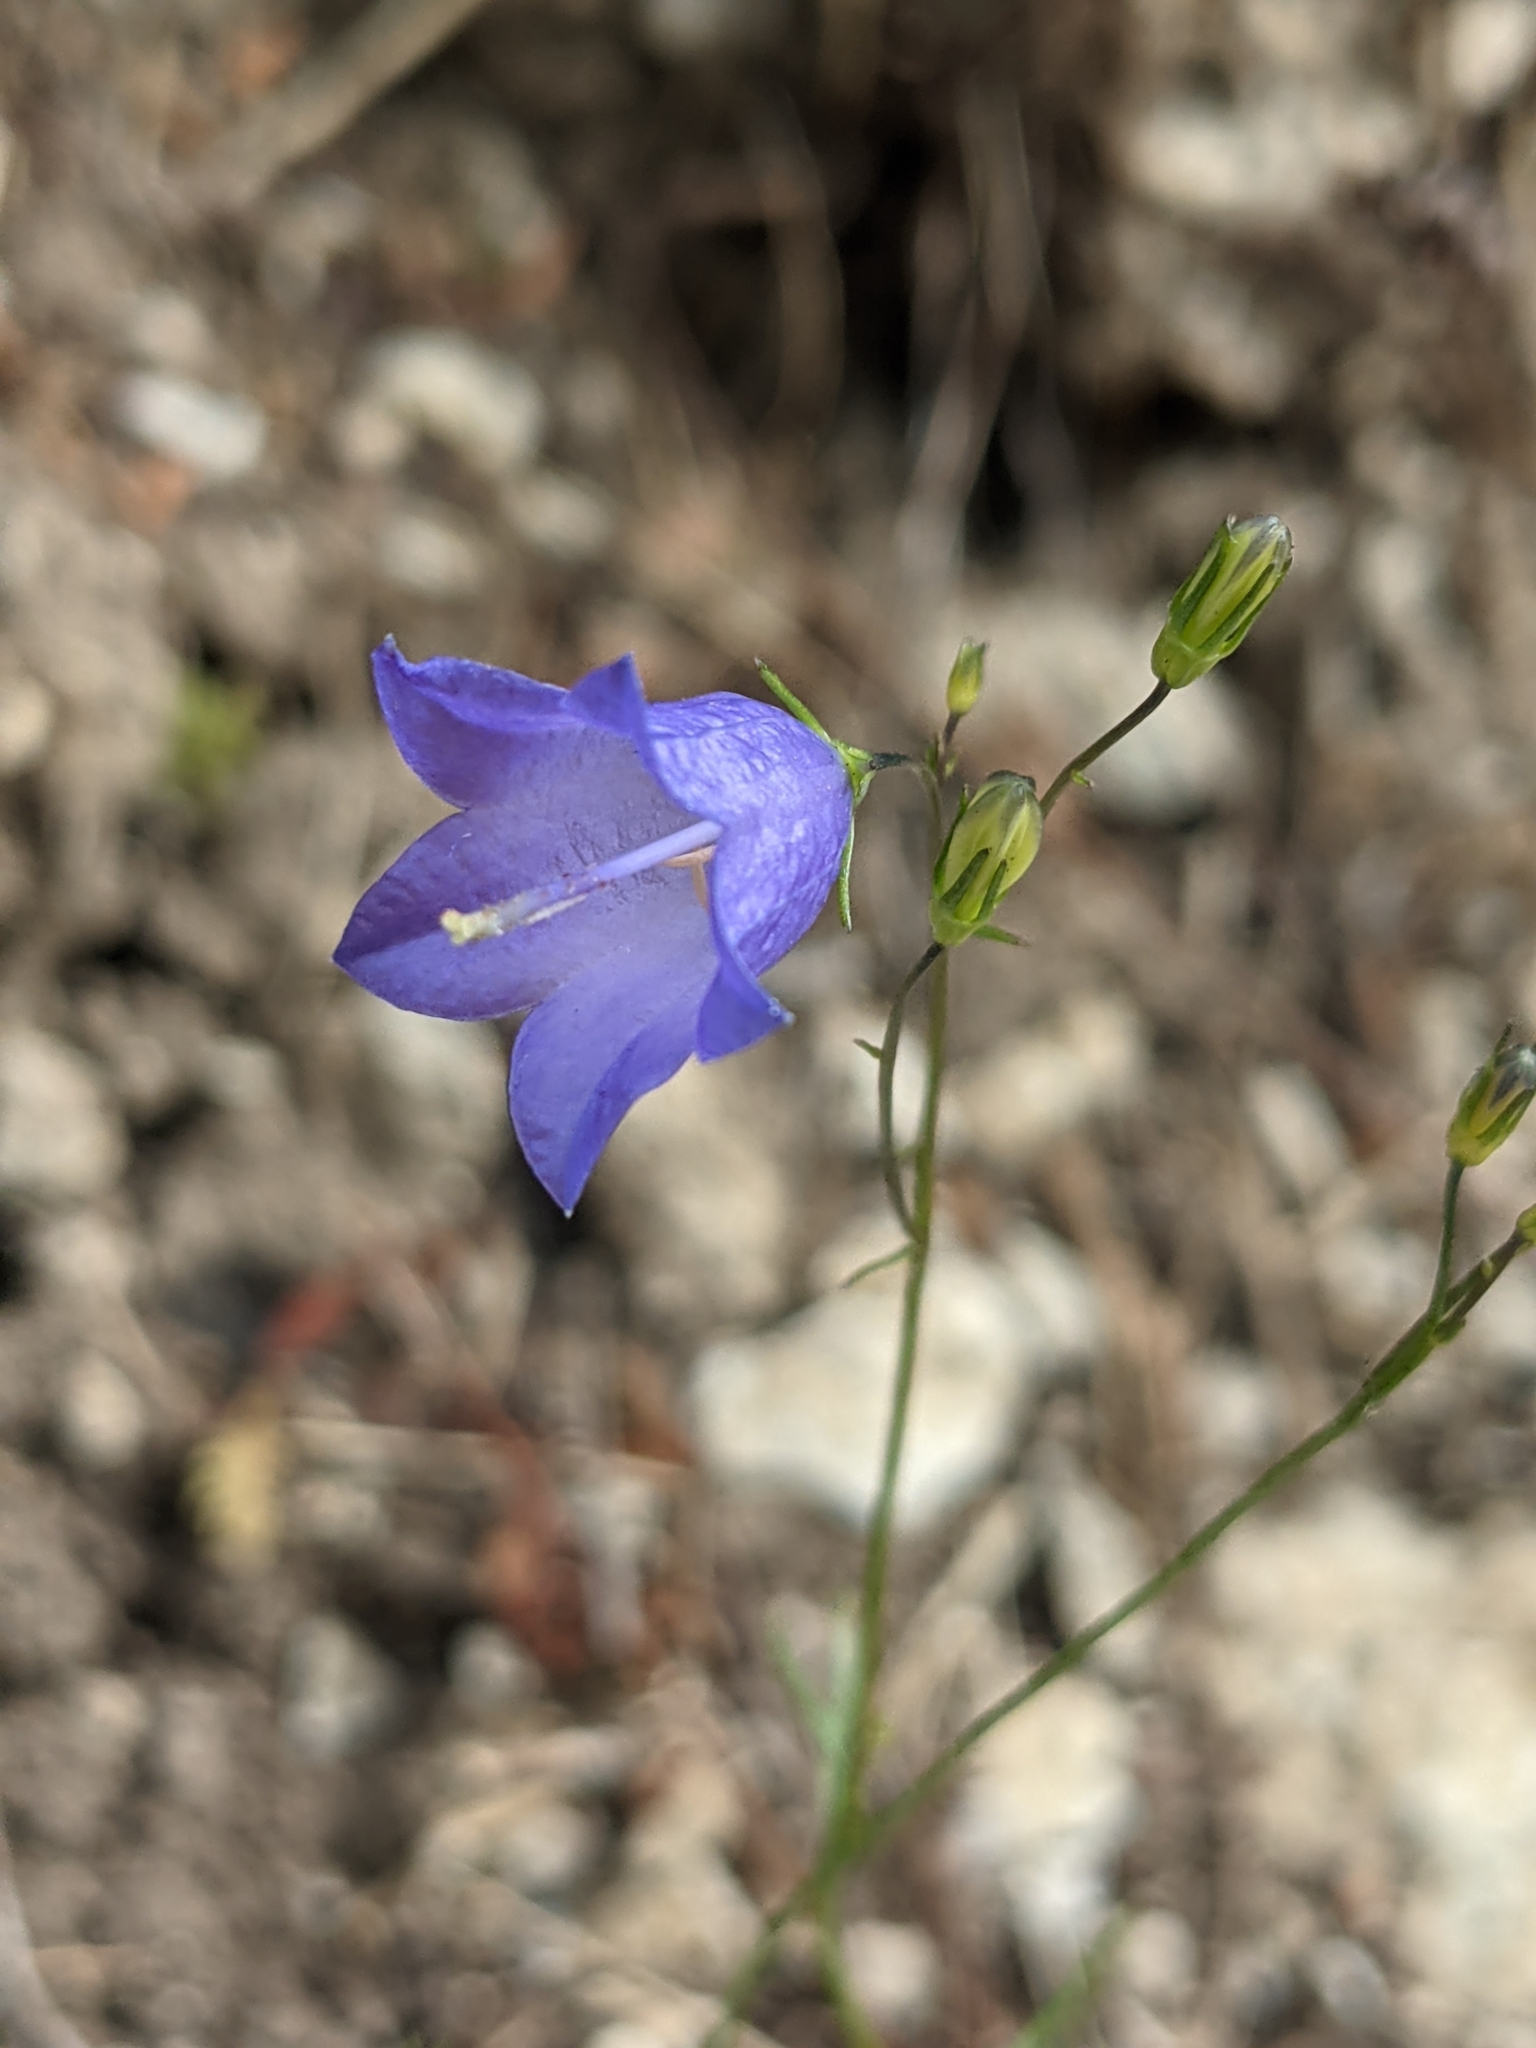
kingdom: Plantae
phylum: Tracheophyta
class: Magnoliopsida
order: Asterales
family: Campanulaceae
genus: Campanula
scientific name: Campanula rotundifolia
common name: Harebell
